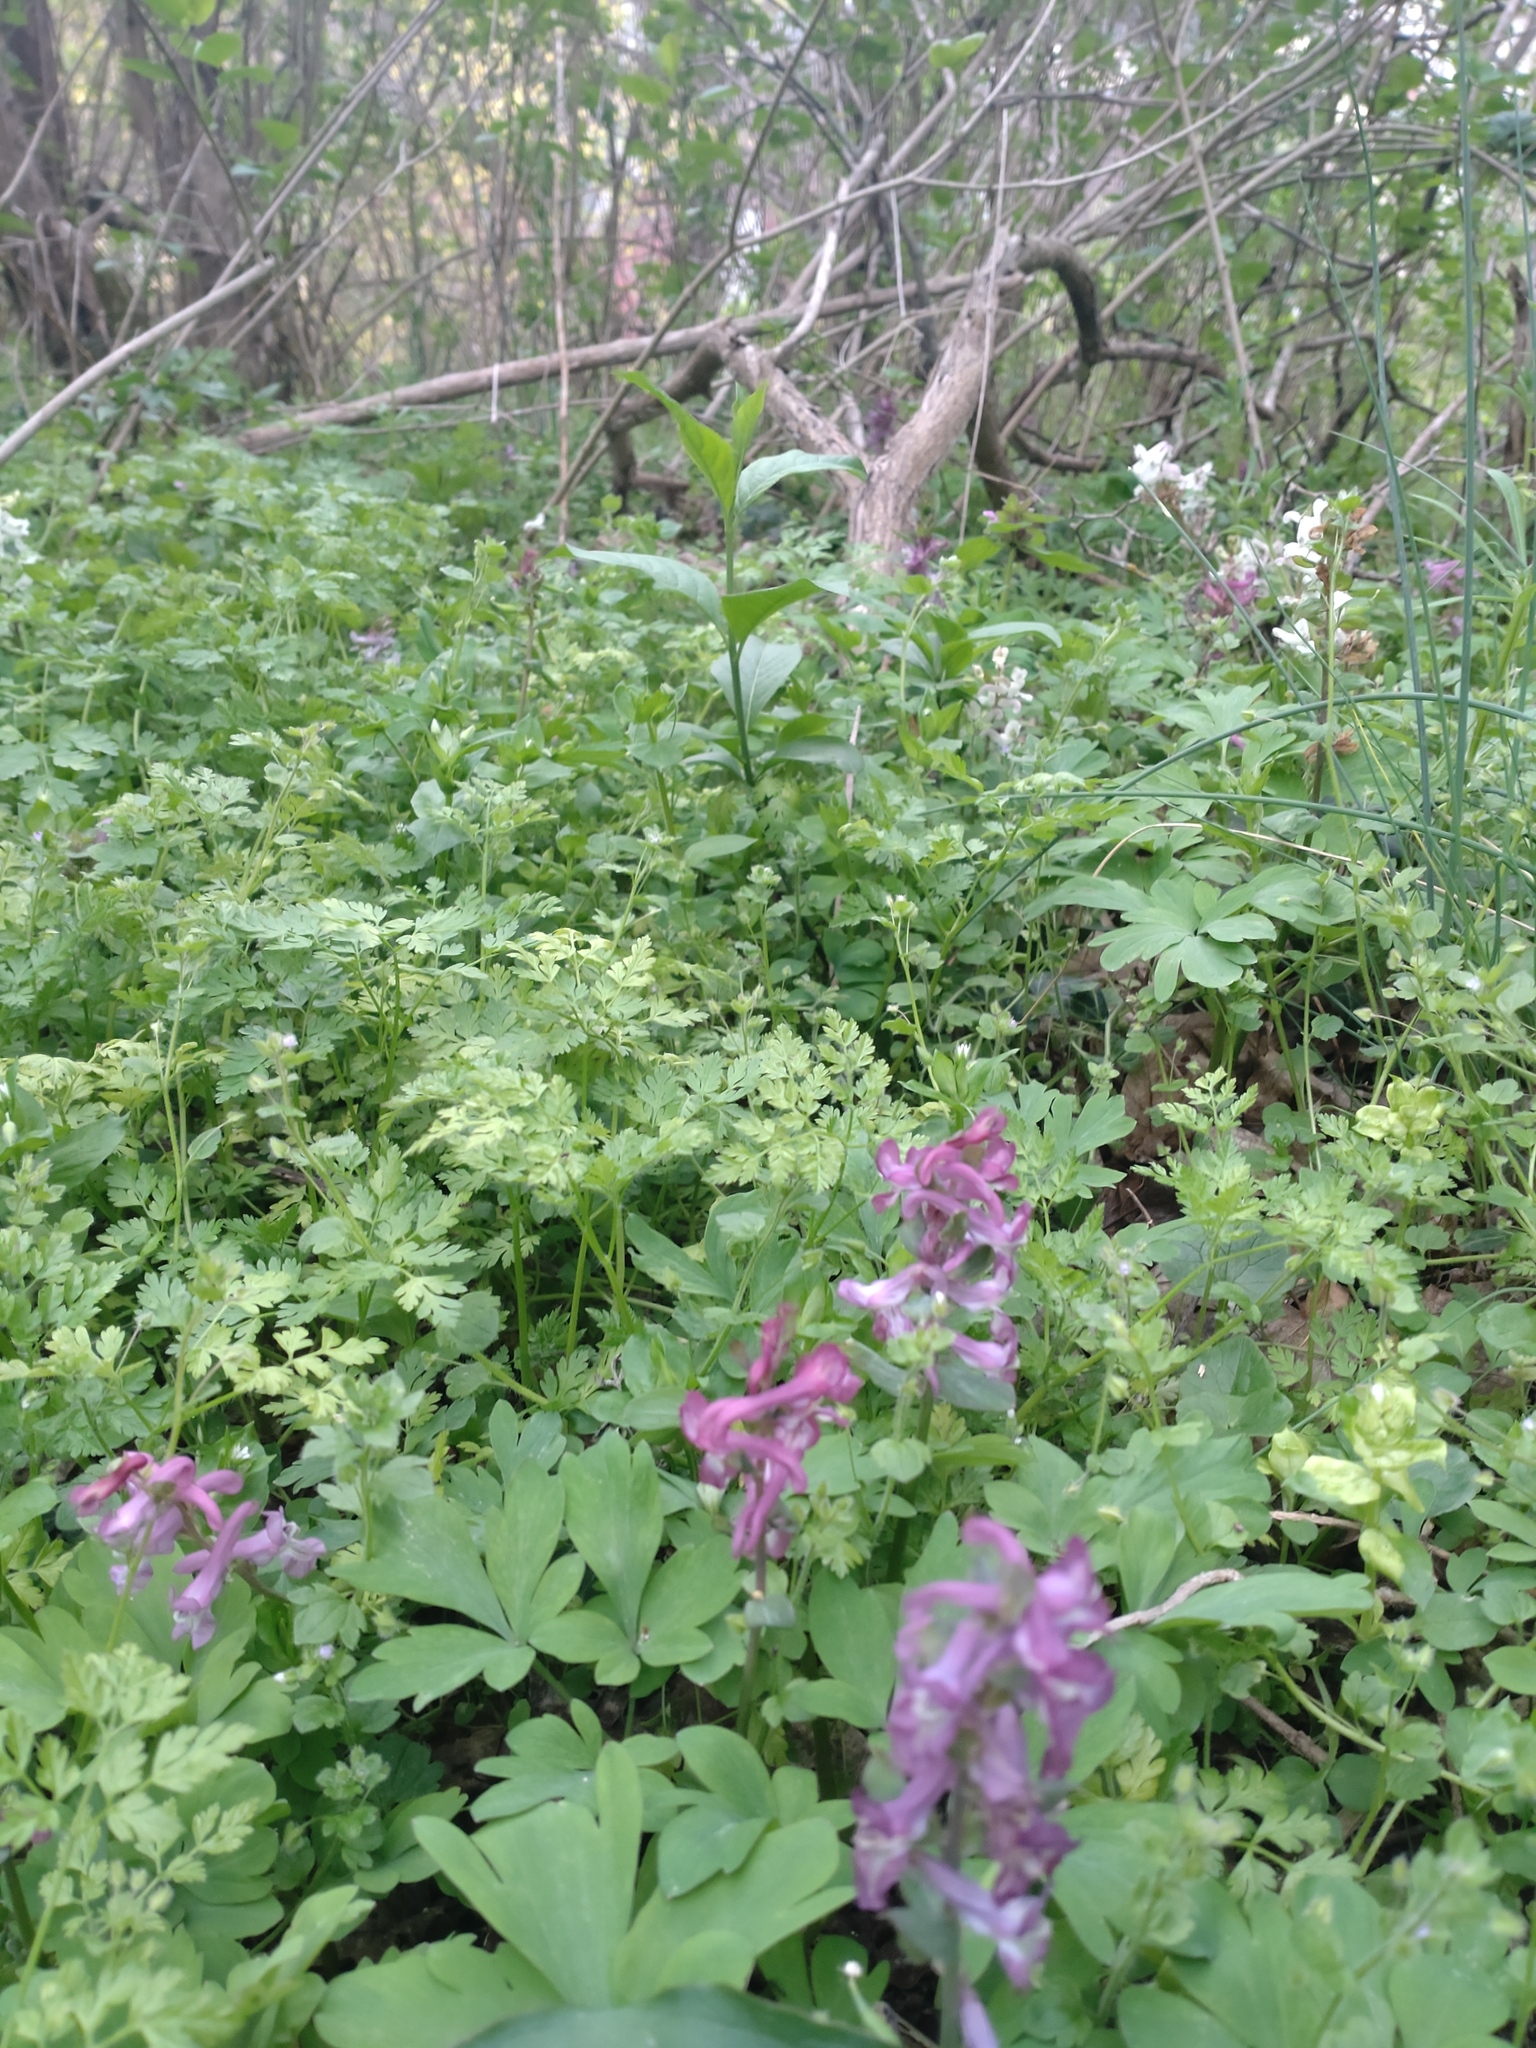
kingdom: Plantae
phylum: Tracheophyta
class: Magnoliopsida
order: Ranunculales
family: Papaveraceae
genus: Corydalis
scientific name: Corydalis cava
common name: Hollowroot
